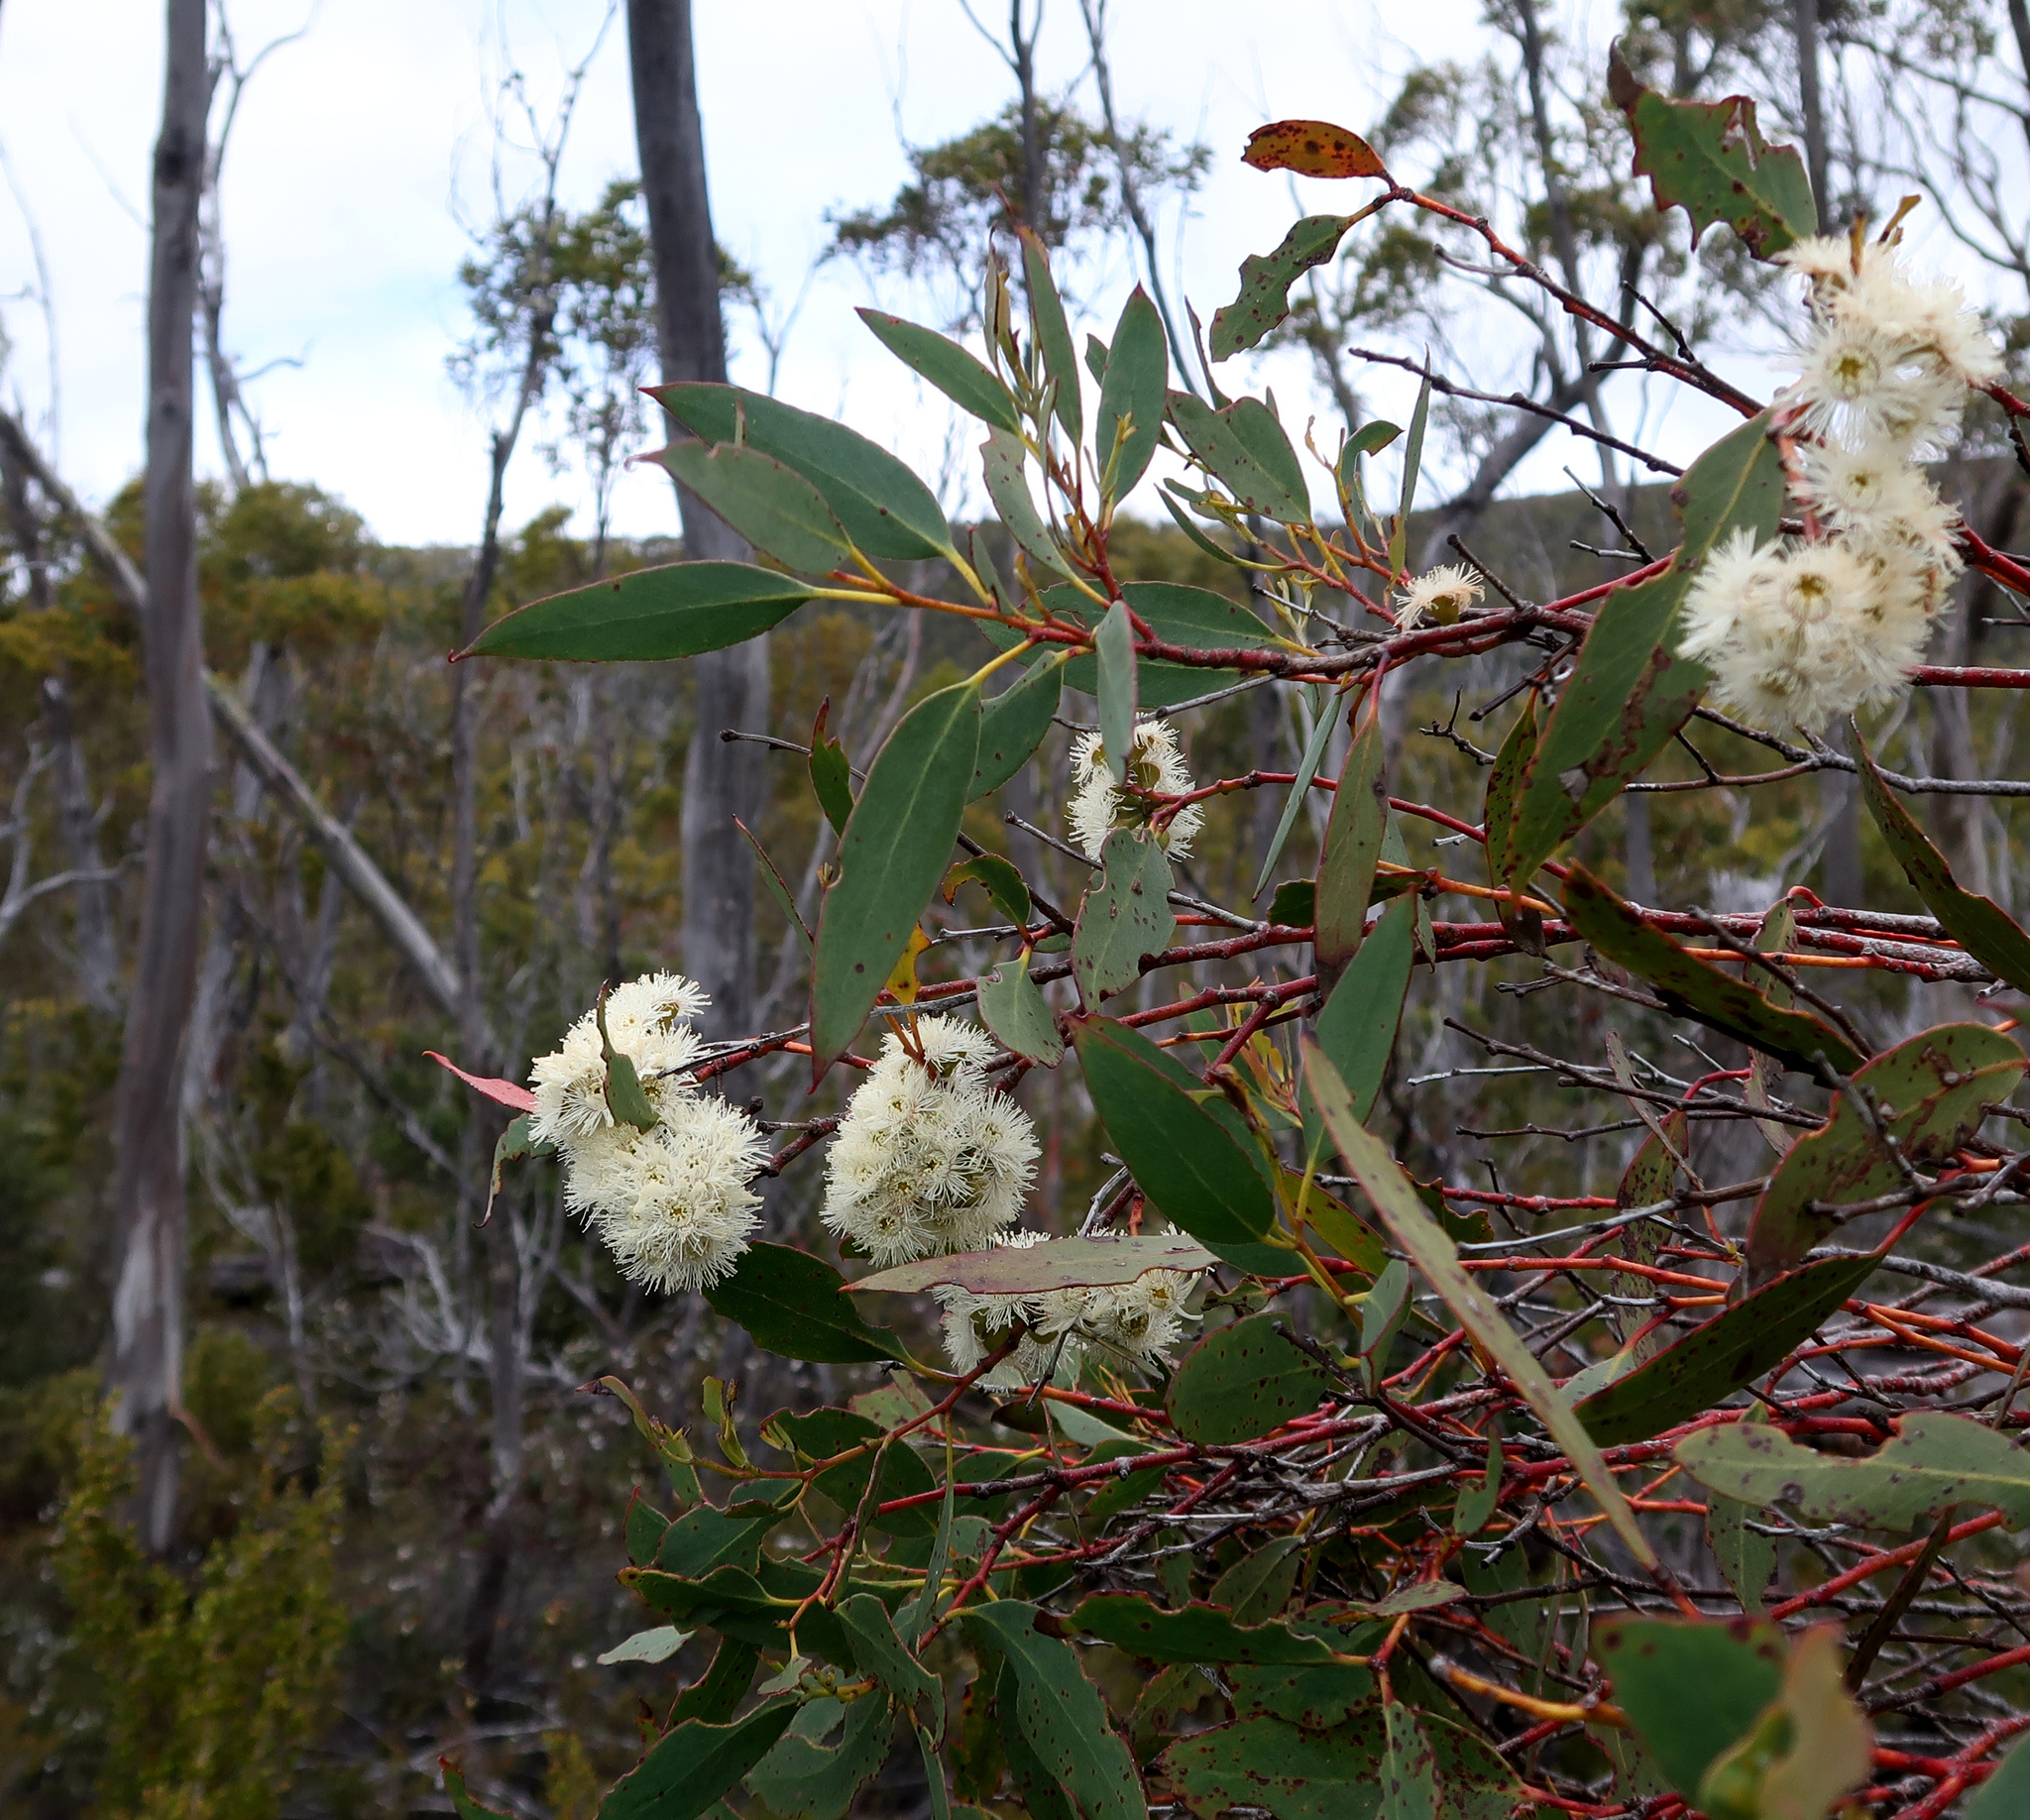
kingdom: Plantae
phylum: Tracheophyta
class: Magnoliopsida
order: Myrtales
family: Myrtaceae
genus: Eucalyptus
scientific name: Eucalyptus coccifera
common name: Tasmanian snow-gum
